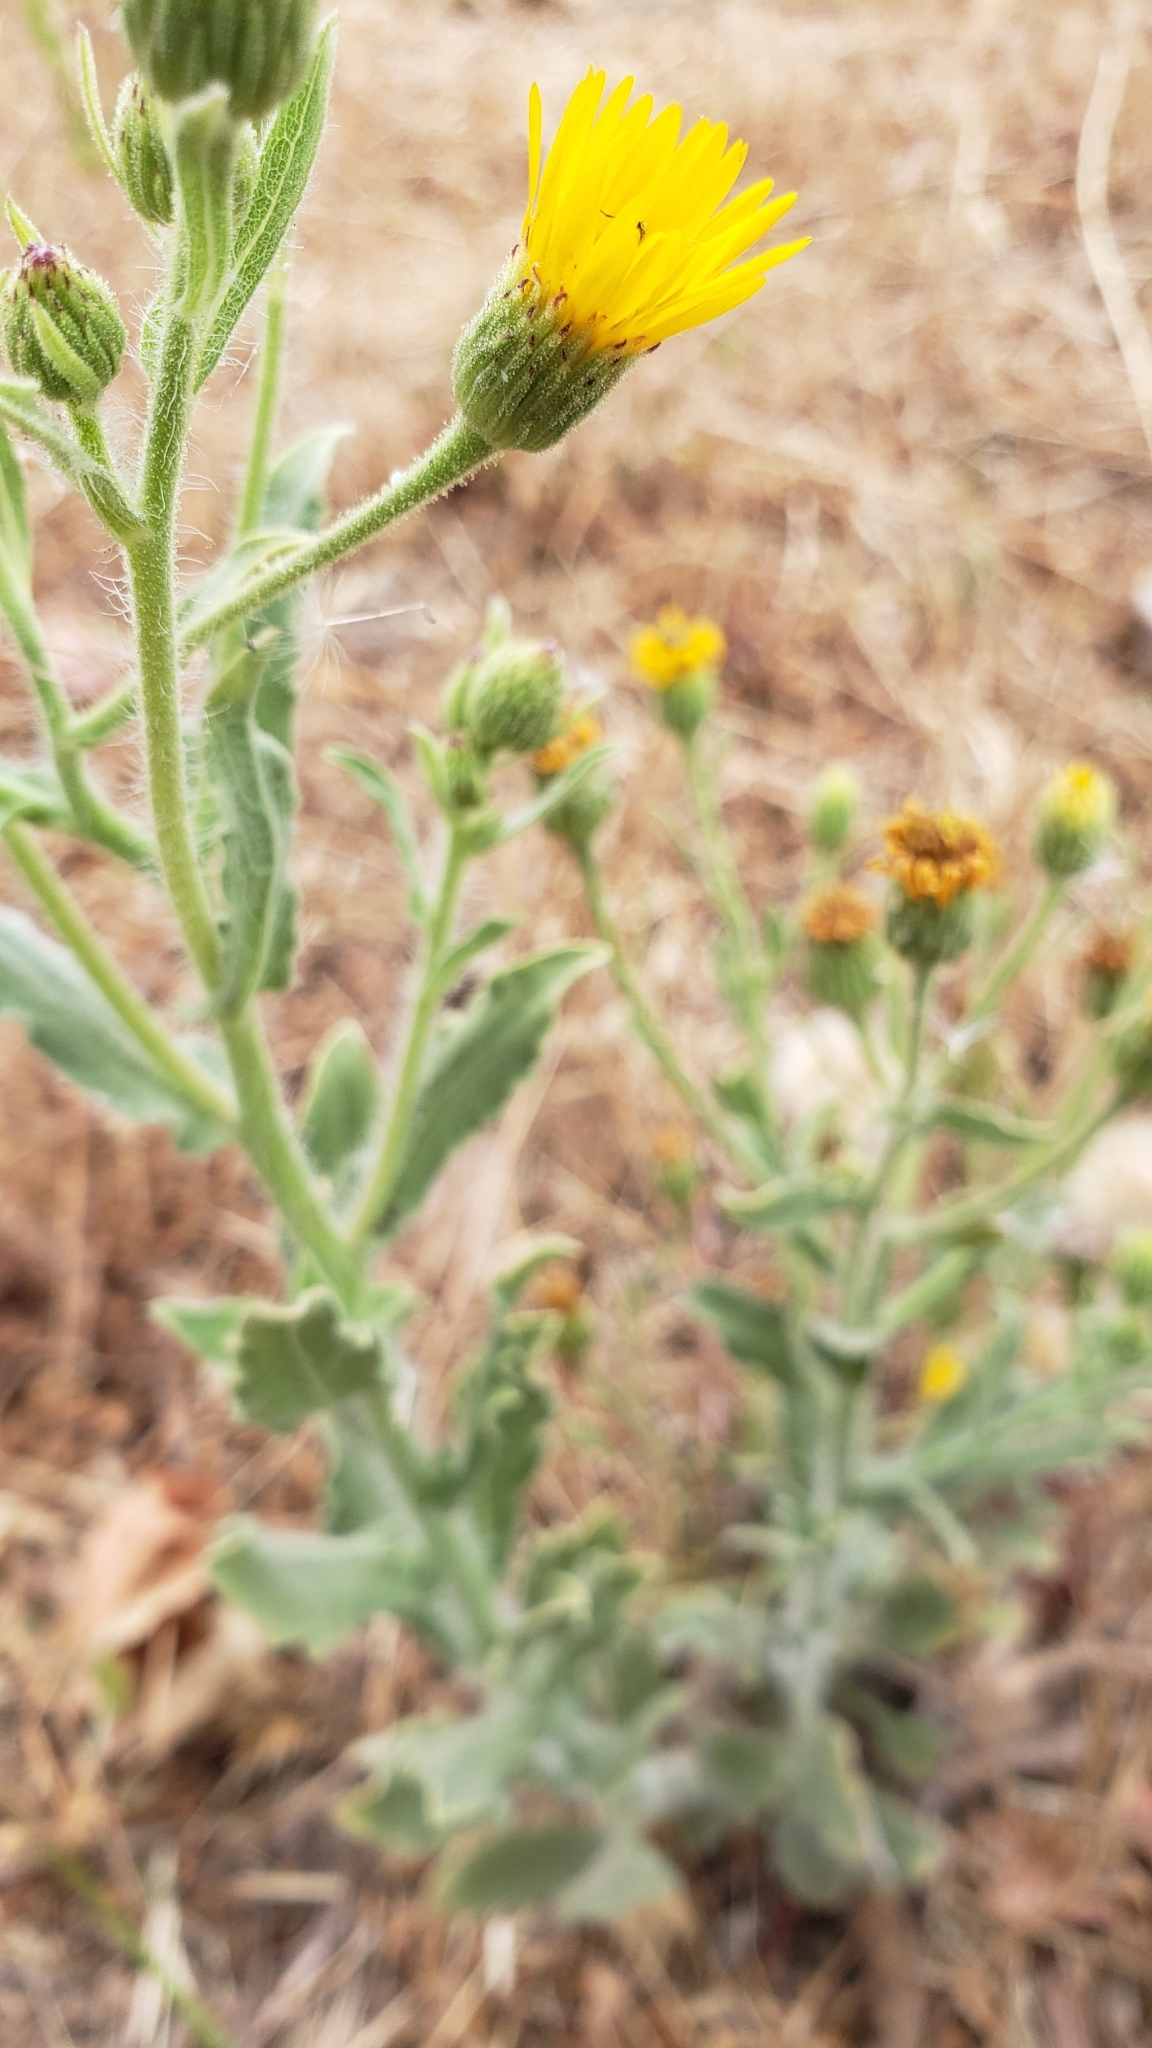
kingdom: Plantae
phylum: Tracheophyta
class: Magnoliopsida
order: Asterales
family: Asteraceae
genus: Heterotheca
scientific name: Heterotheca grandiflora
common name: Telegraphweed
